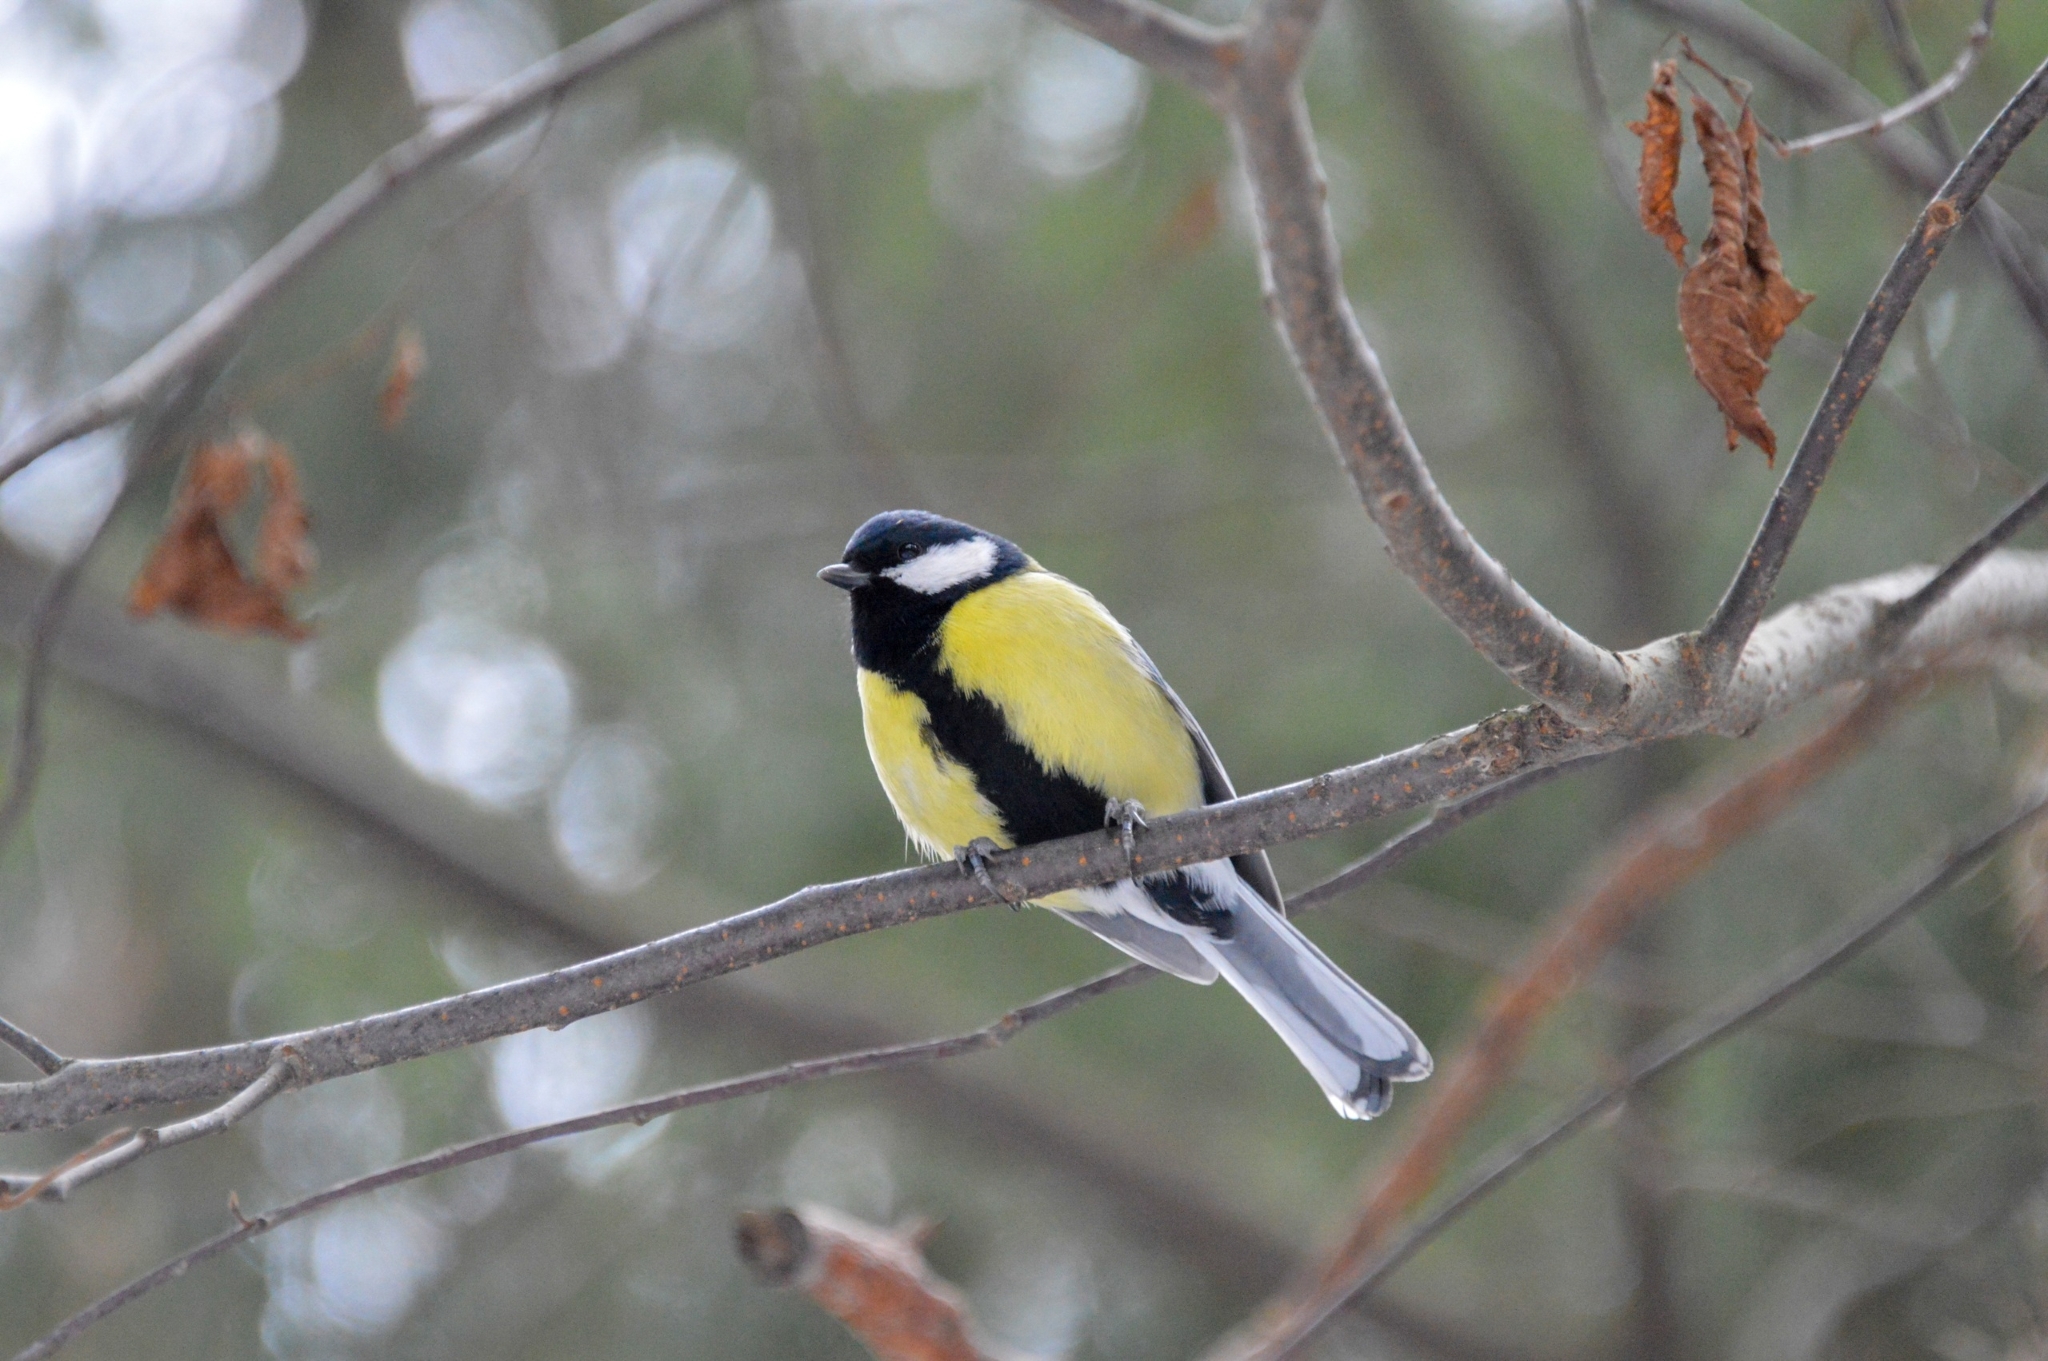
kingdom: Animalia
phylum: Chordata
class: Aves
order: Passeriformes
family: Paridae
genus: Parus
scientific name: Parus major
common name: Great tit
